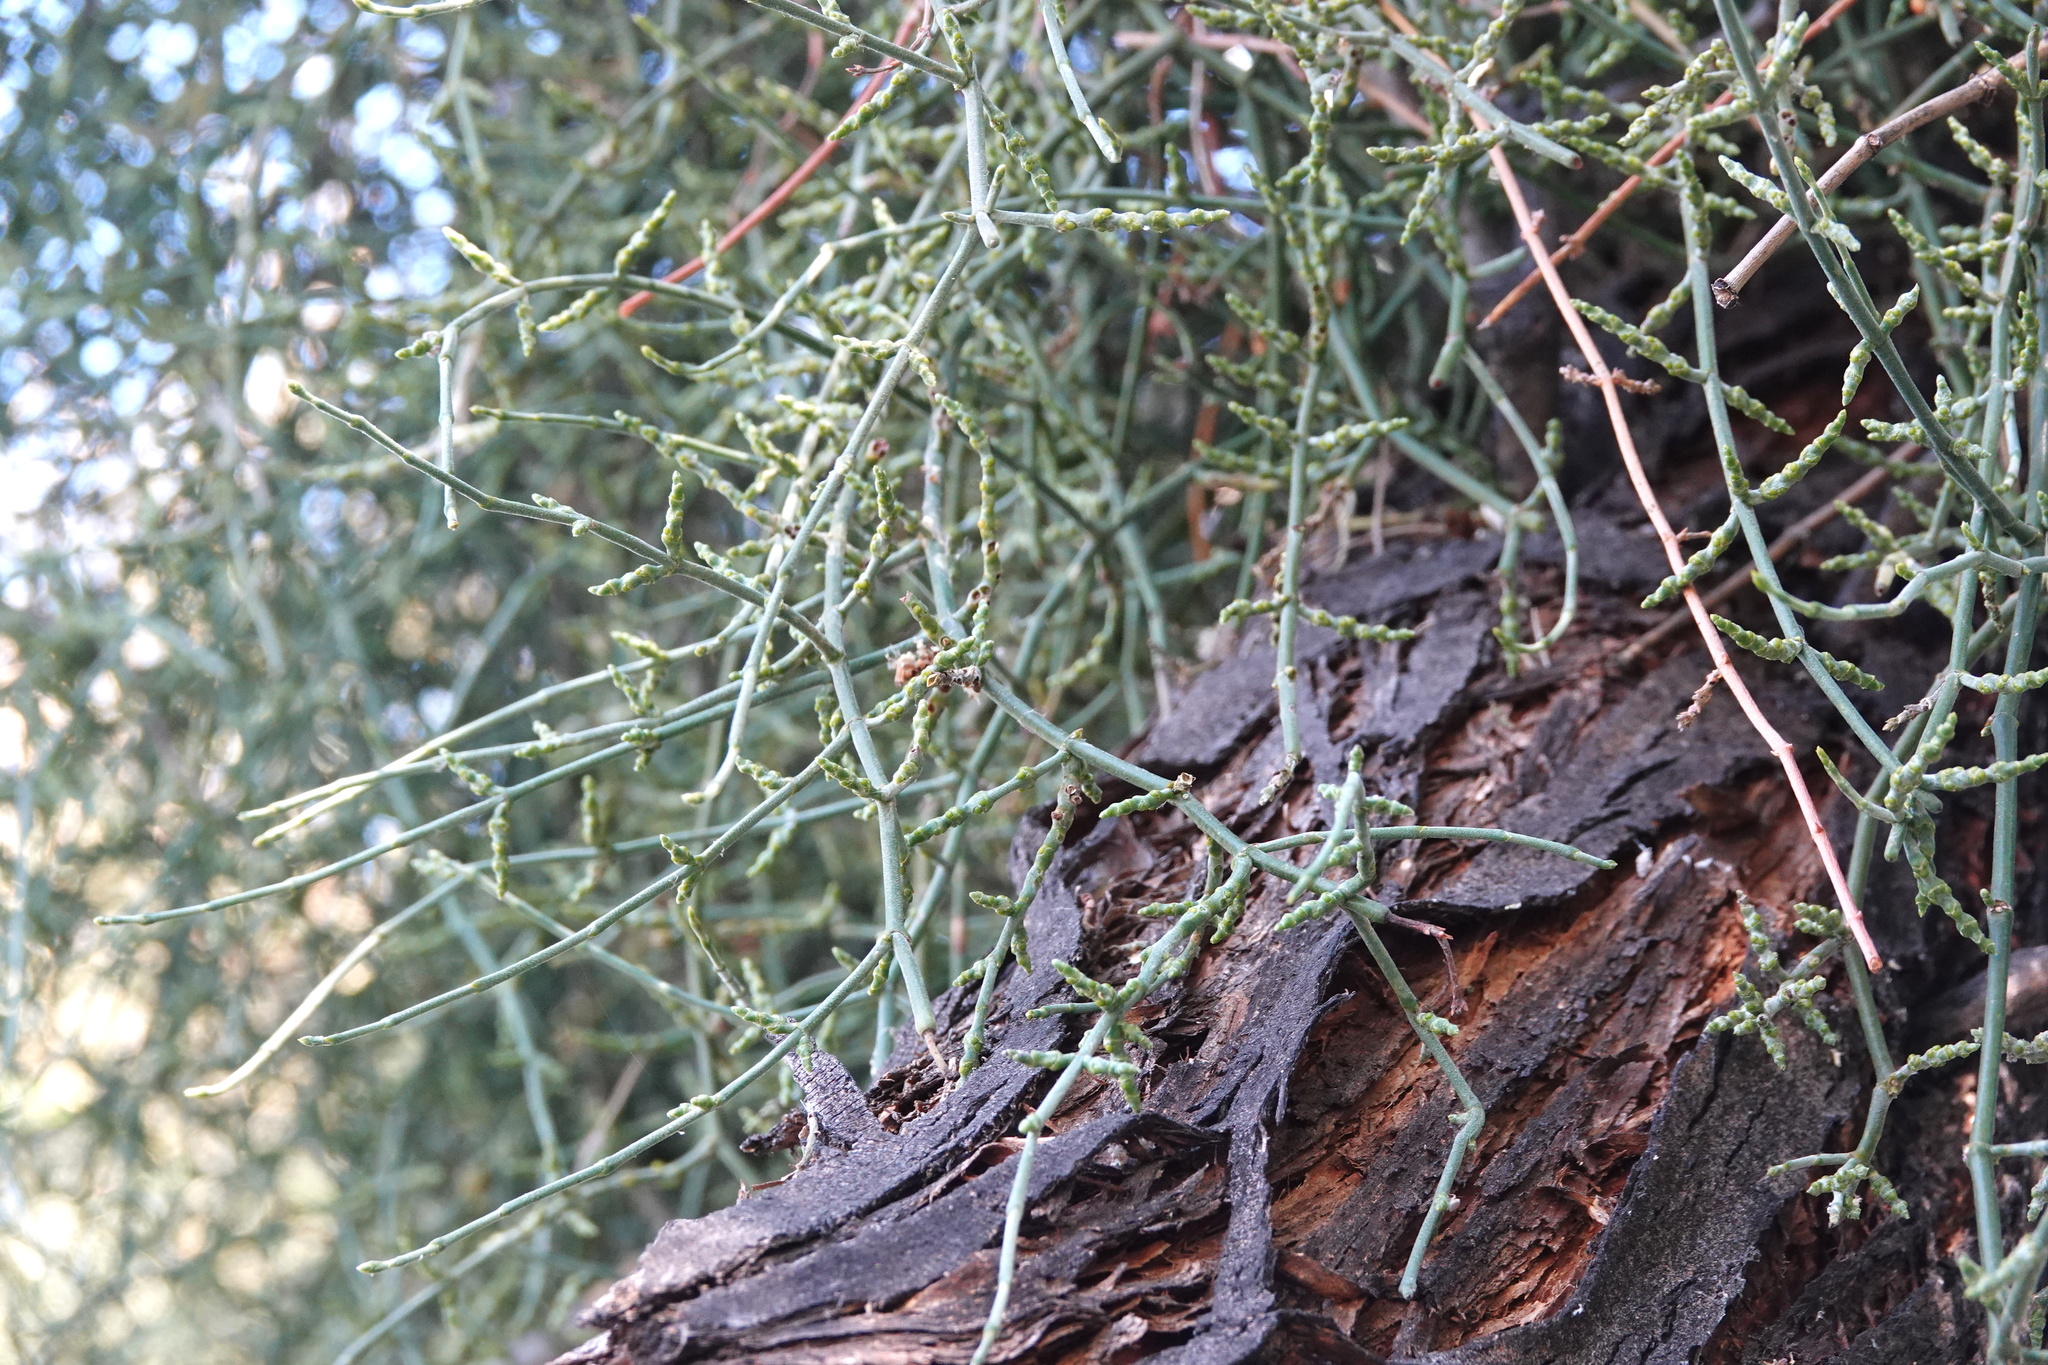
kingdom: Plantae
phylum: Tracheophyta
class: Magnoliopsida
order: Santalales
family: Viscaceae
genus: Phoradendron
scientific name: Phoradendron californicum
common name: Acacia mistletoe
